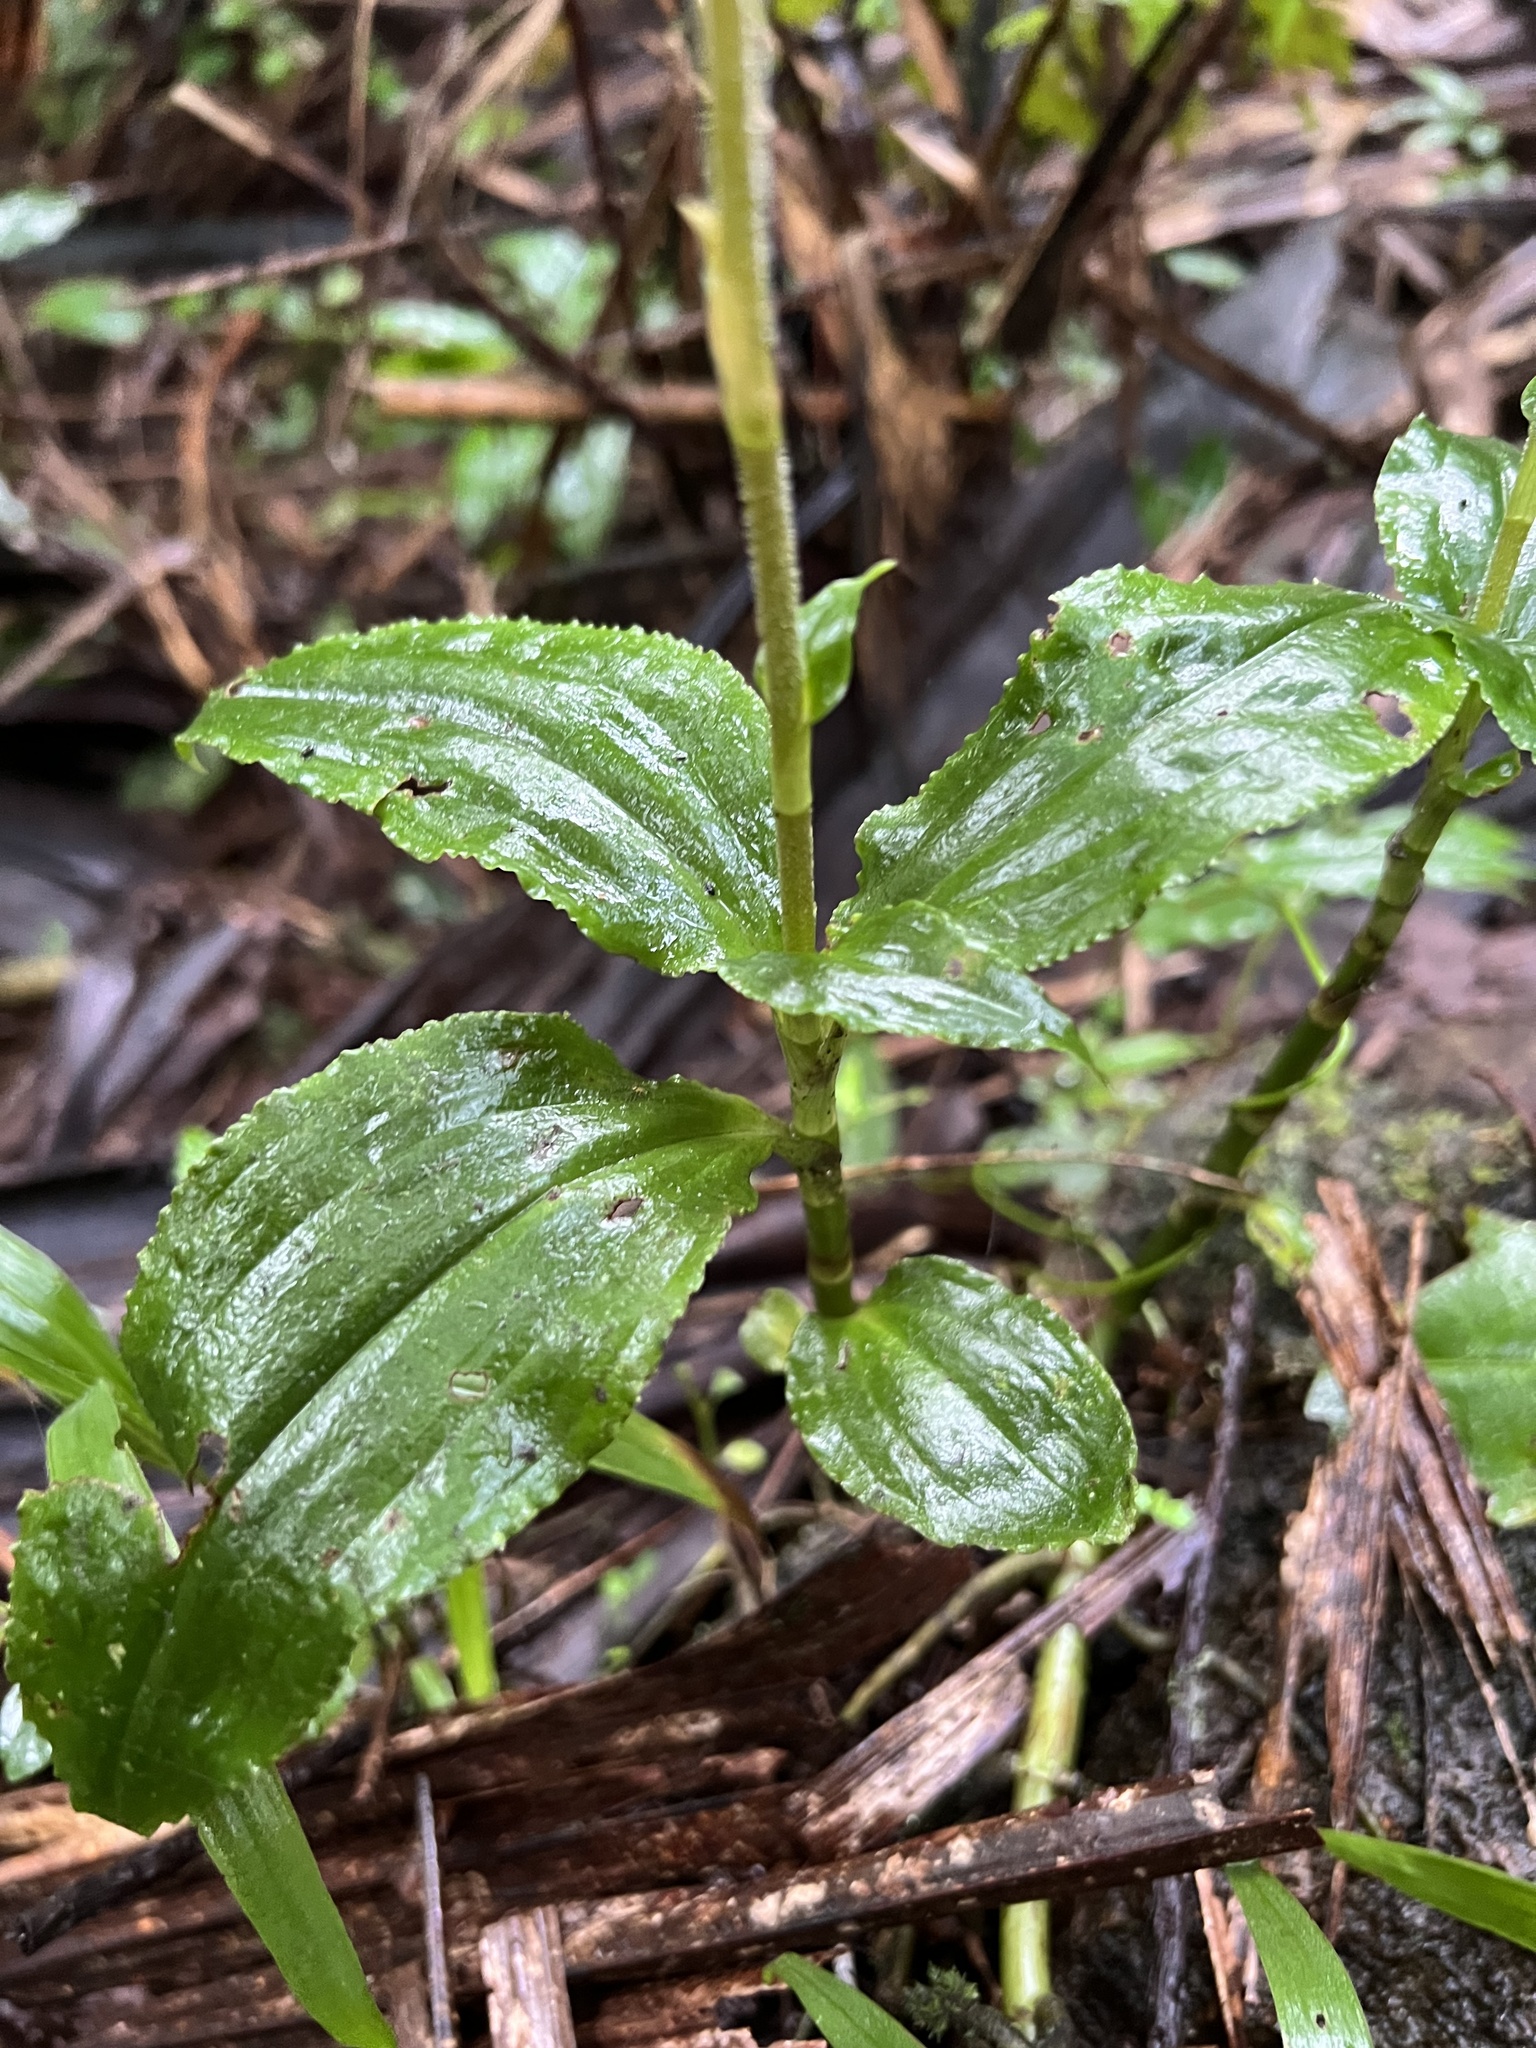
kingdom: Plantae
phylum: Tracheophyta
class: Liliopsida
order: Asparagales
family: Orchidaceae
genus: Microchilus
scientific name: Microchilus plantagineus
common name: Caribbean false helmetorchid
